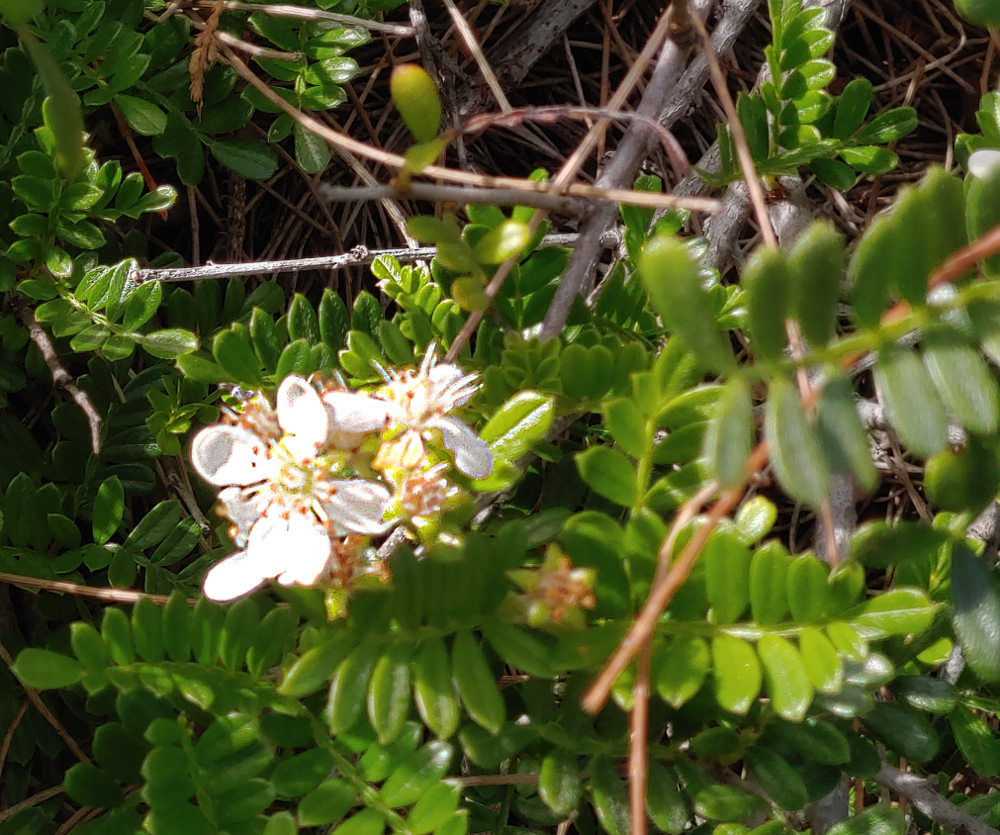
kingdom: Plantae
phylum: Tracheophyta
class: Magnoliopsida
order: Rosales
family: Rosaceae
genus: Osteomeles
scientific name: Osteomeles anthyllidifolia
